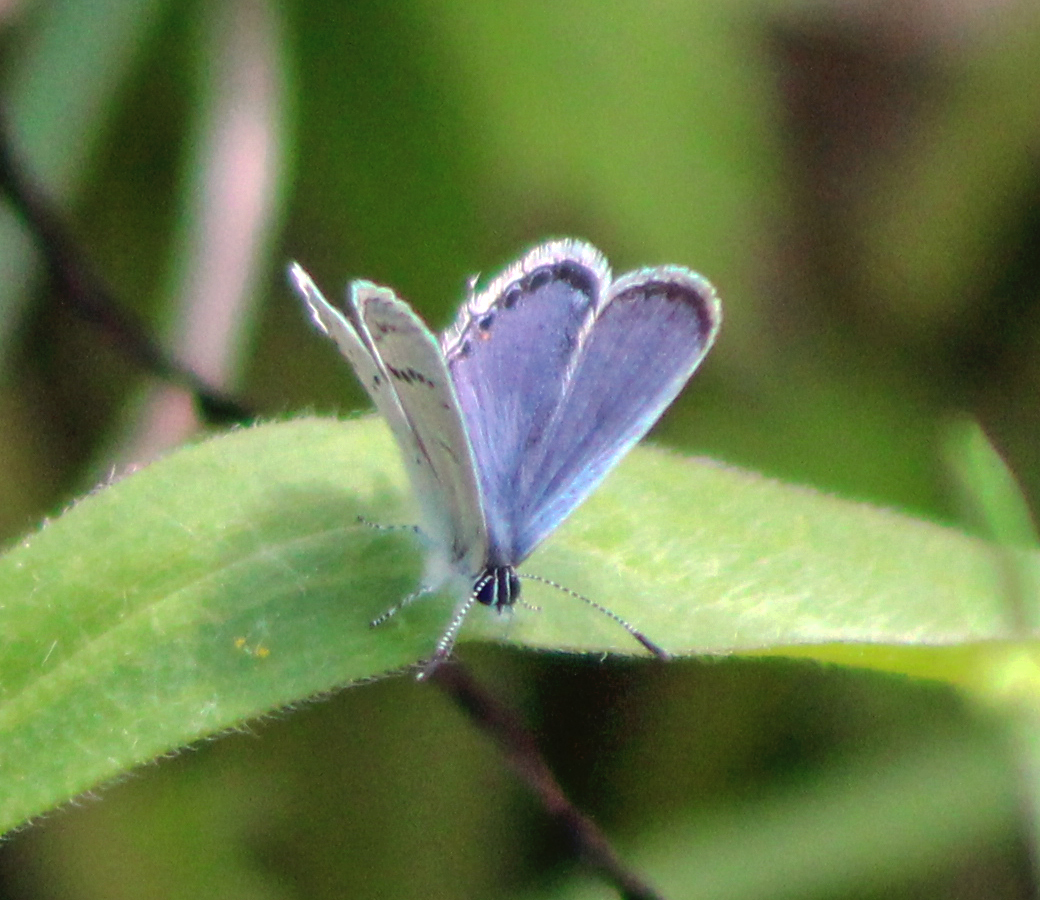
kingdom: Animalia
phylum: Arthropoda
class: Insecta
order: Lepidoptera
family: Lycaenidae
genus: Elkalyce
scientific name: Elkalyce comyntas
